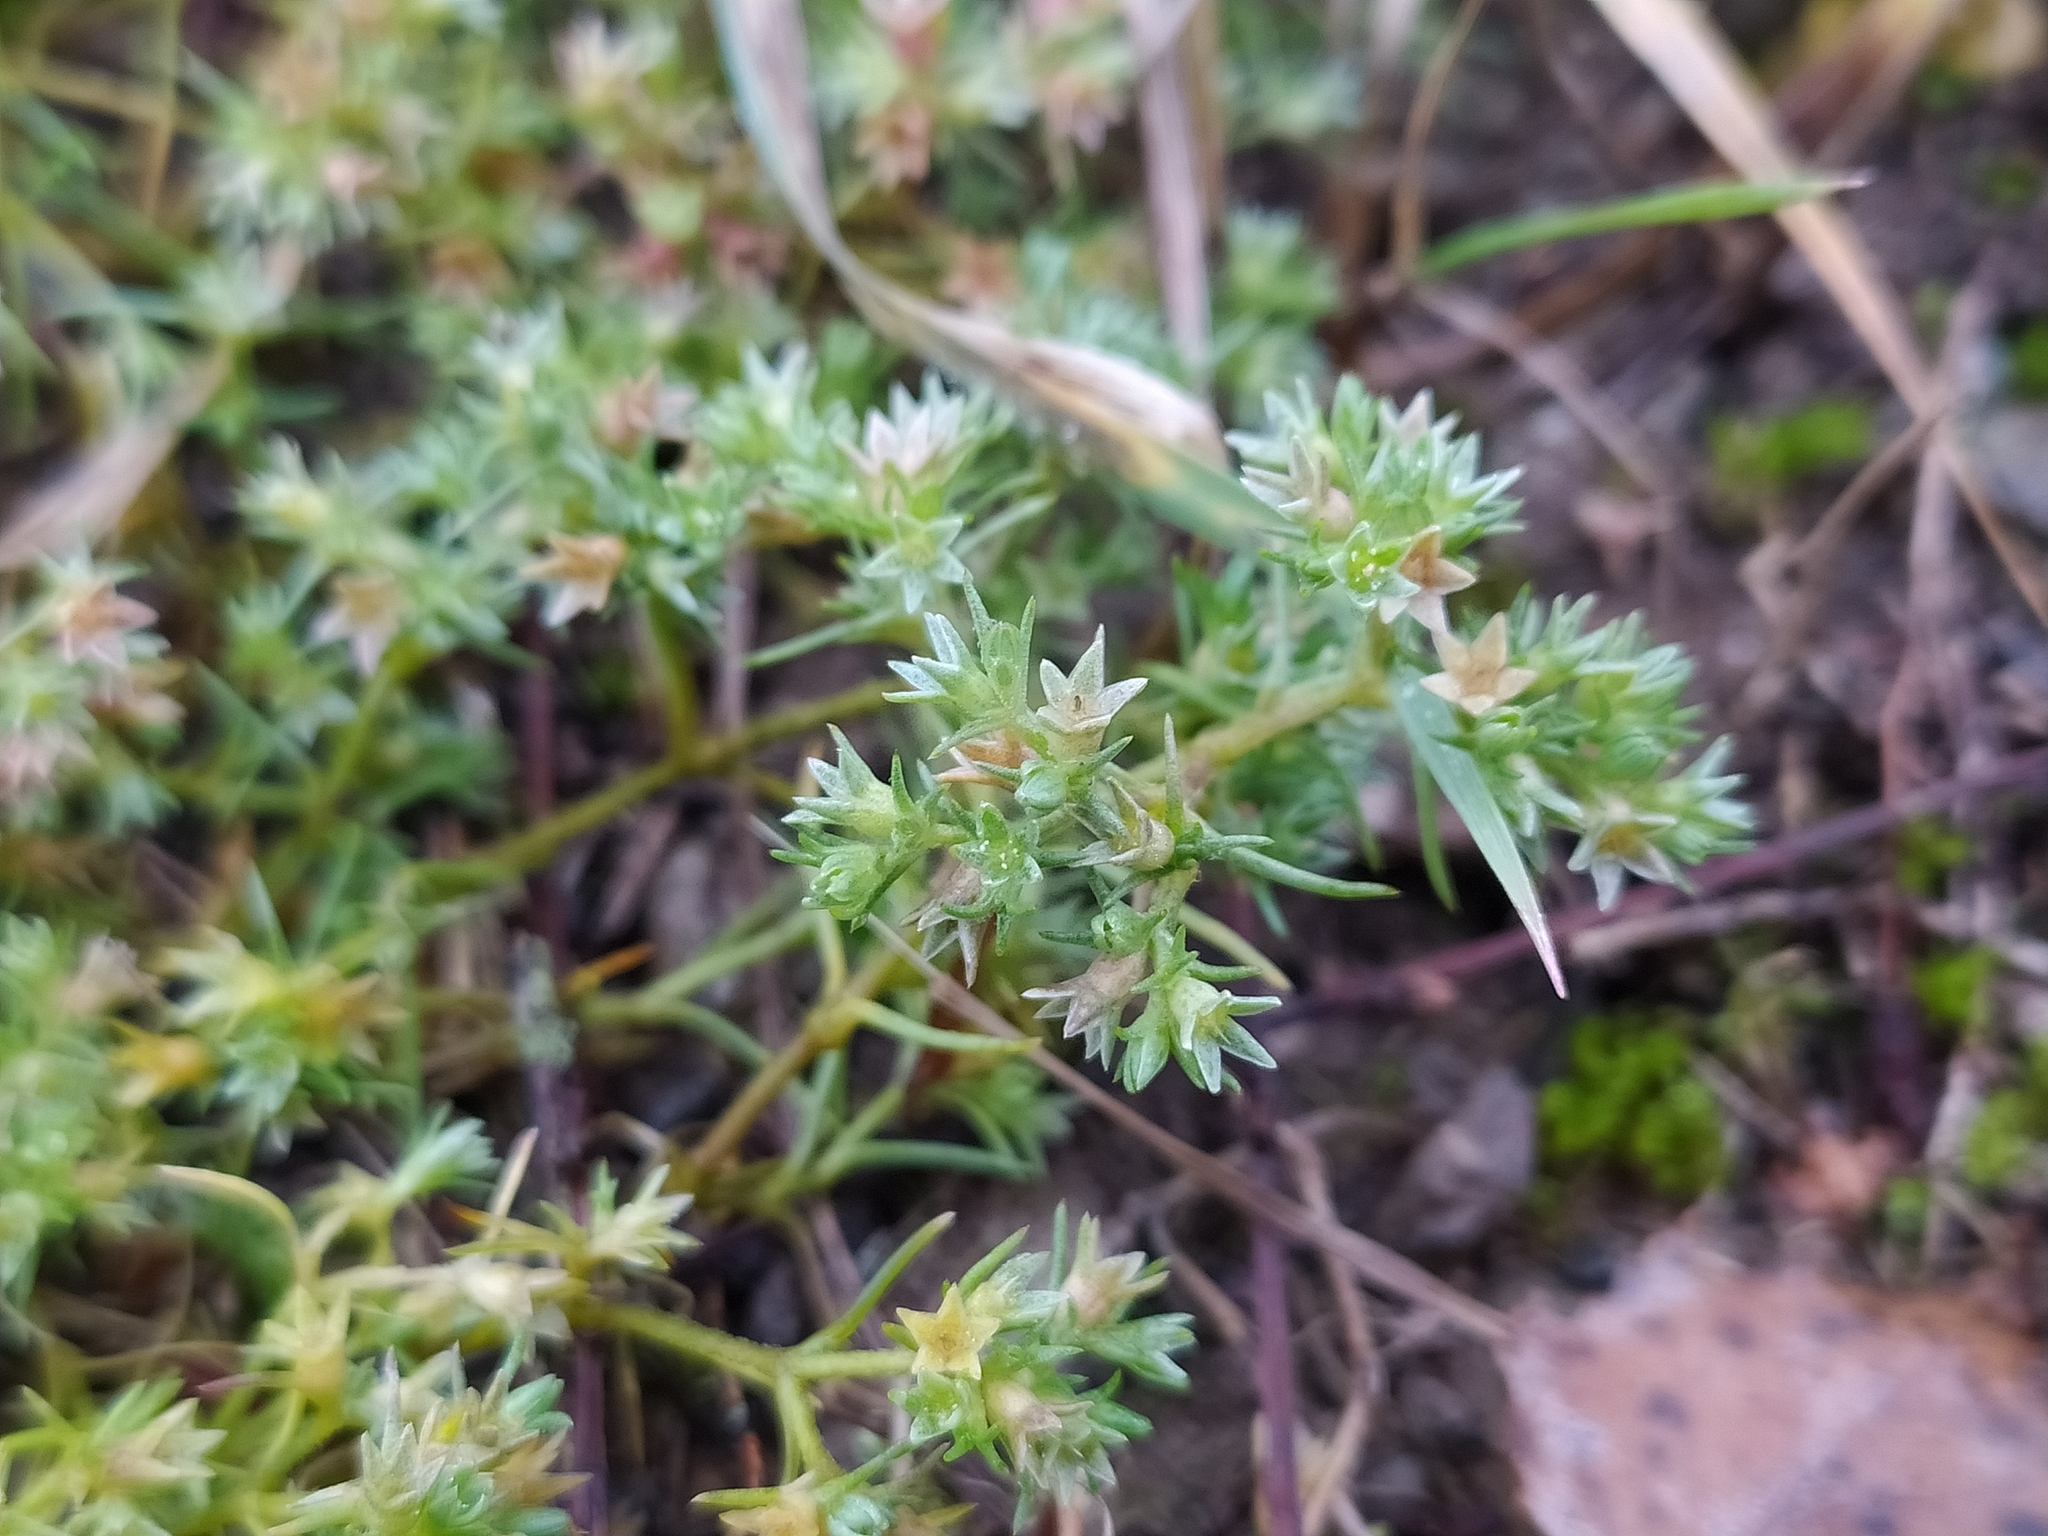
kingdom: Plantae
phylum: Tracheophyta
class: Magnoliopsida
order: Caryophyllales
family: Caryophyllaceae
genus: Scleranthus
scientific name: Scleranthus annuus
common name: Annual knawel
